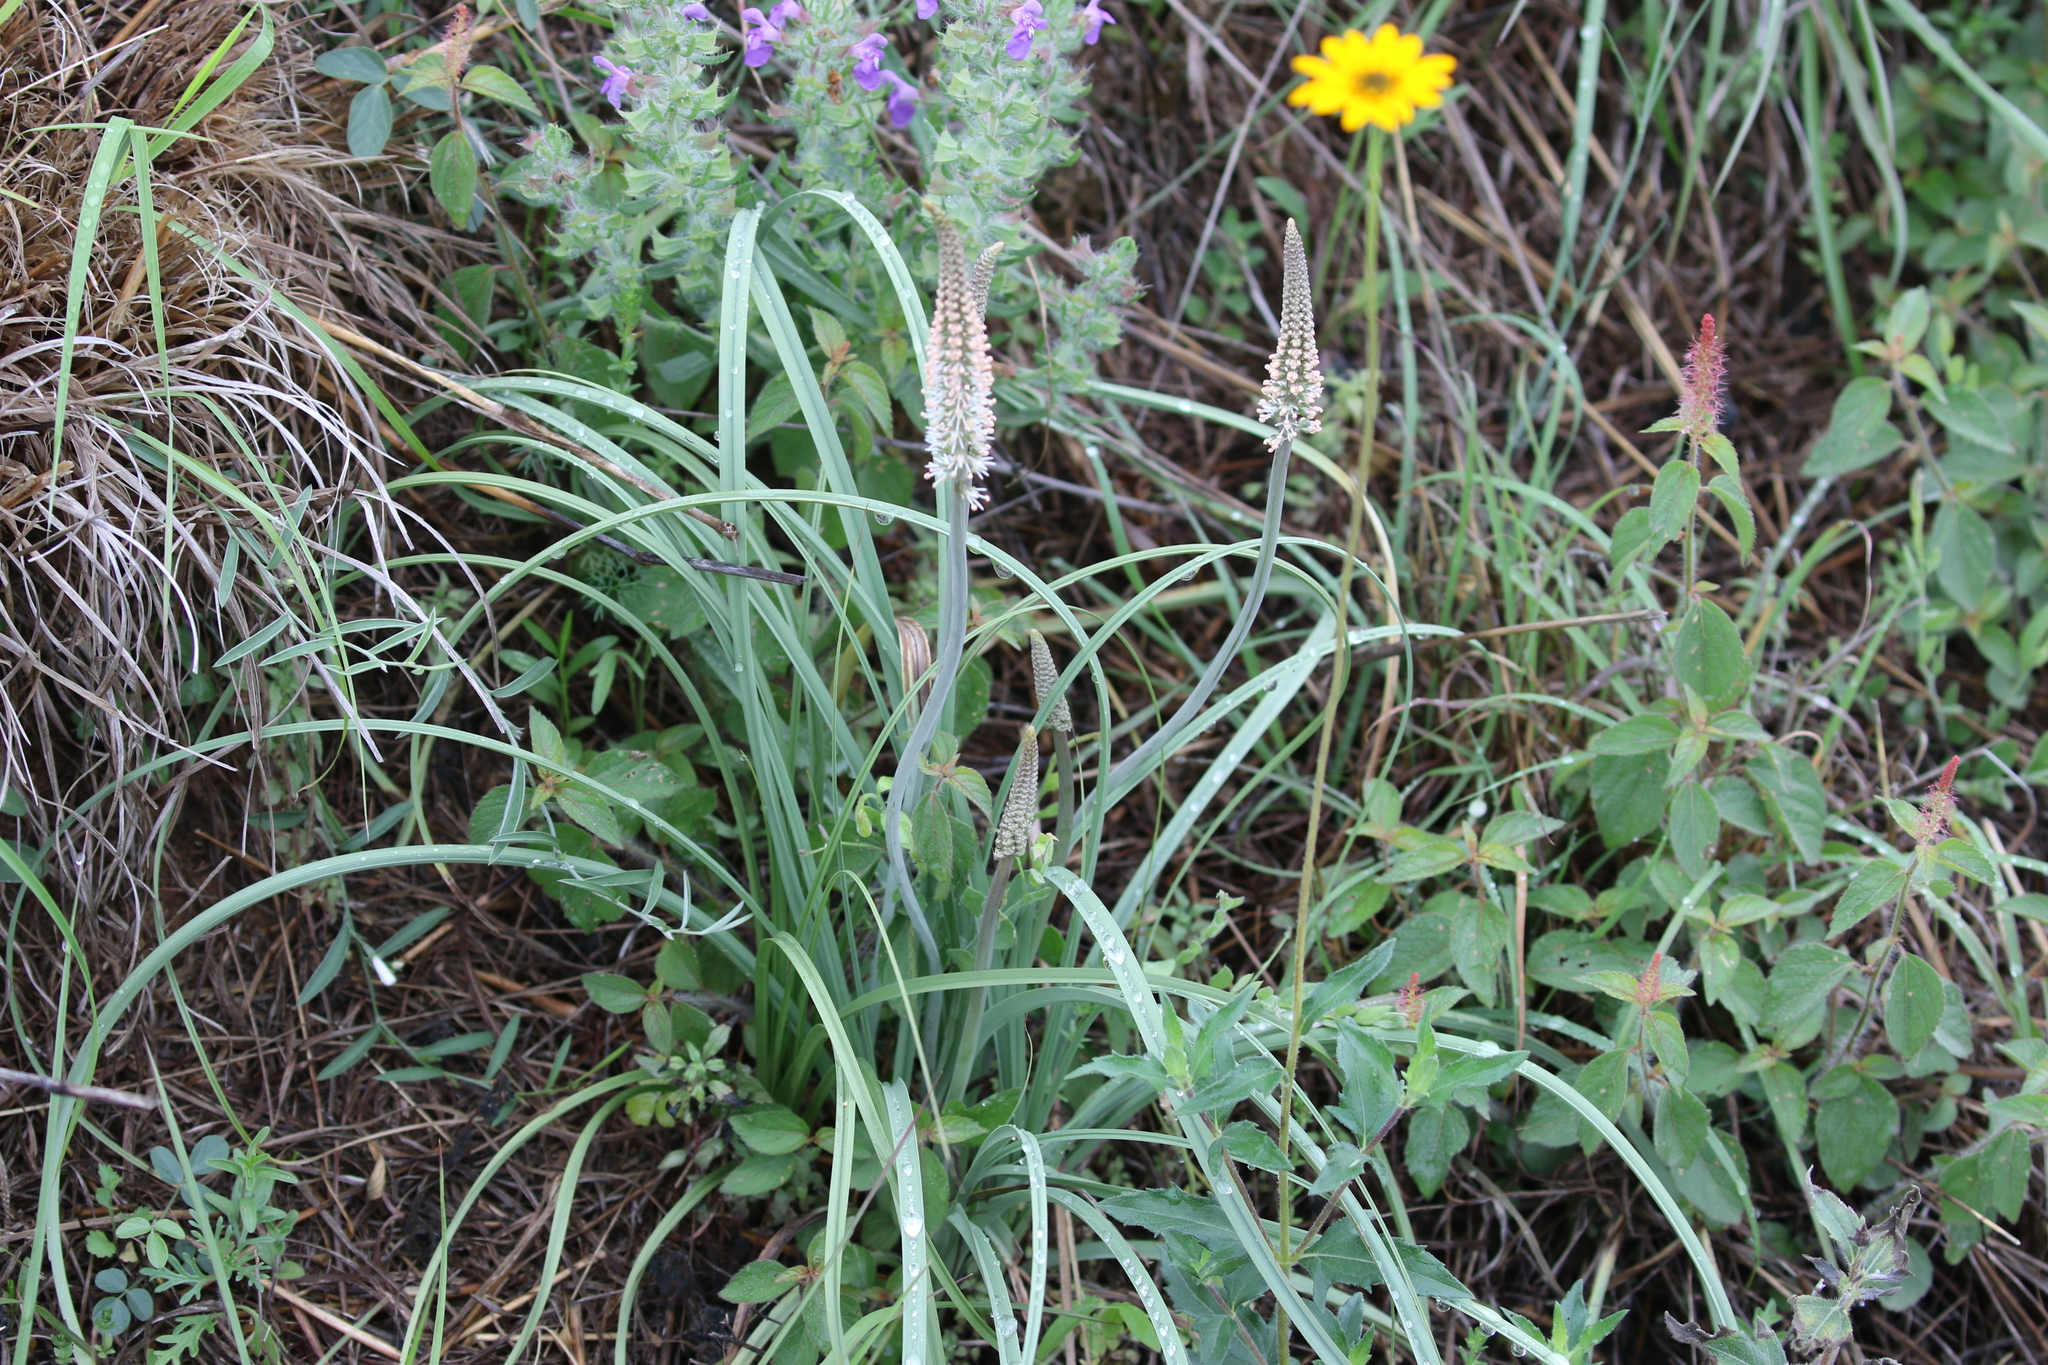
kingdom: Plantae
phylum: Tracheophyta
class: Liliopsida
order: Liliales
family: Melanthiaceae
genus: Schoenocaulon
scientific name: Schoenocaulon texanum
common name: Texas feather-shank
